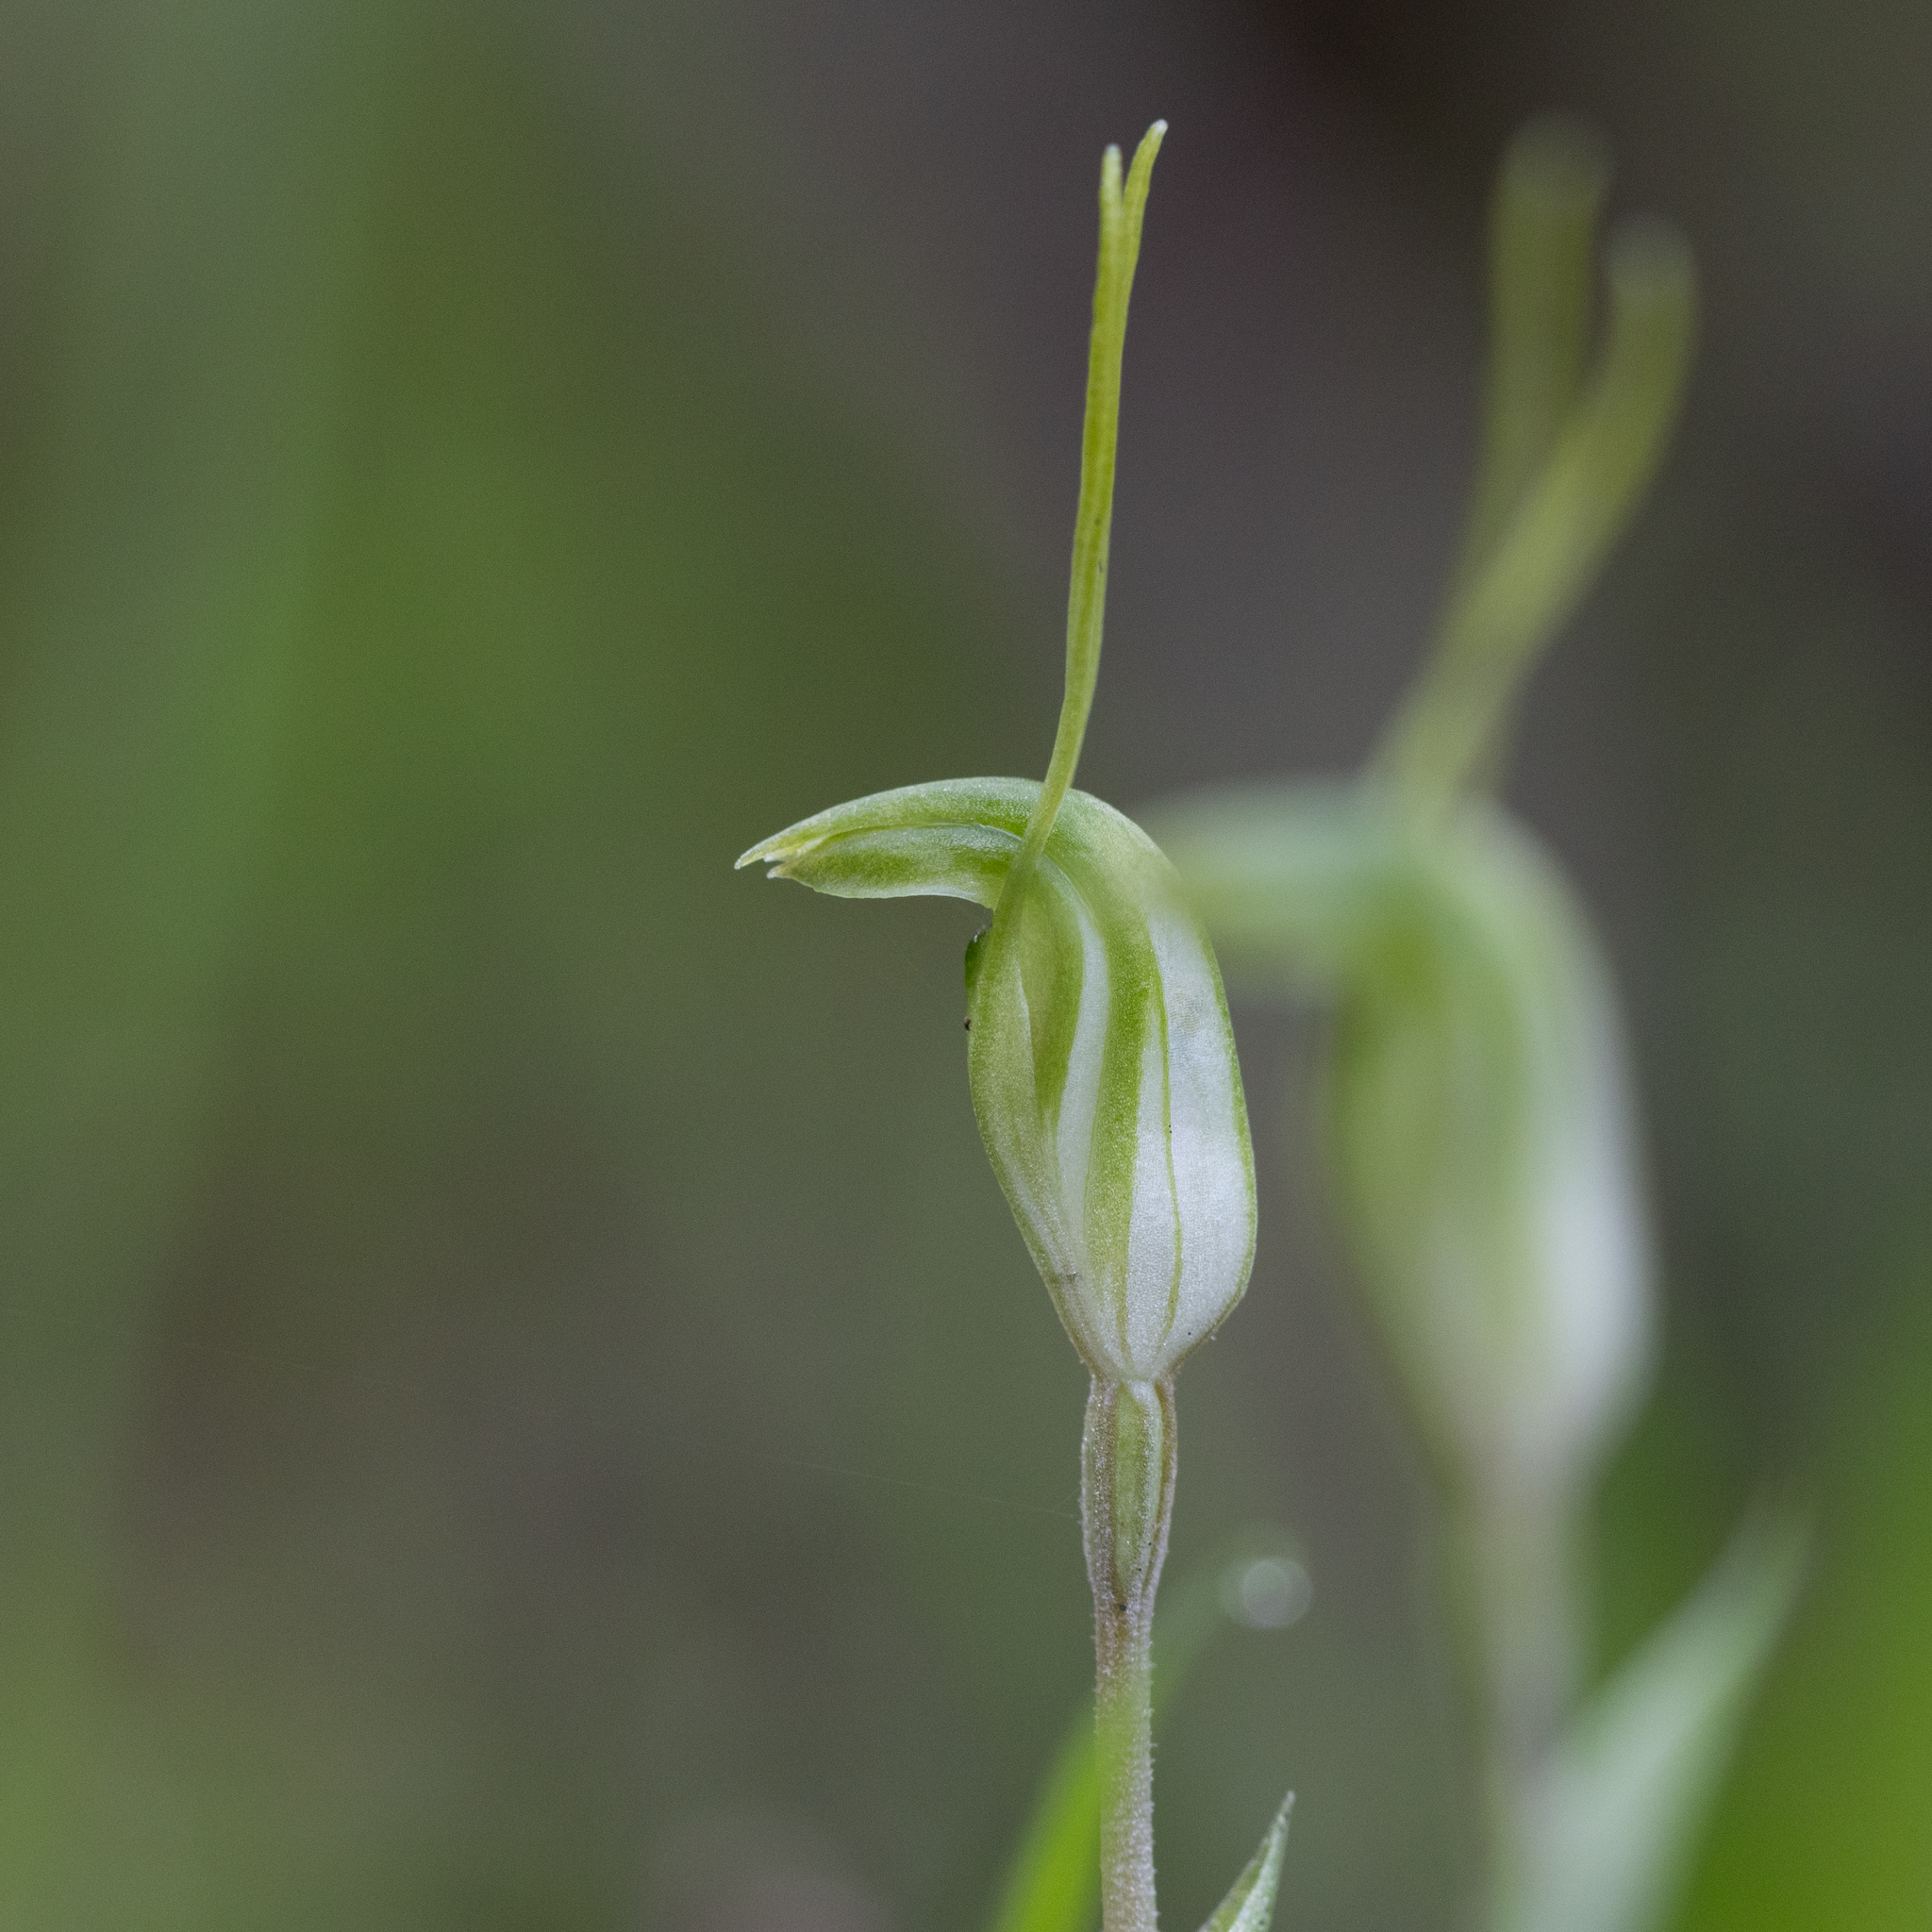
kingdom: Plantae
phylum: Tracheophyta
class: Liliopsida
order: Asparagales
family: Orchidaceae
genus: Pterostylis
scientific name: Pterostylis nana
